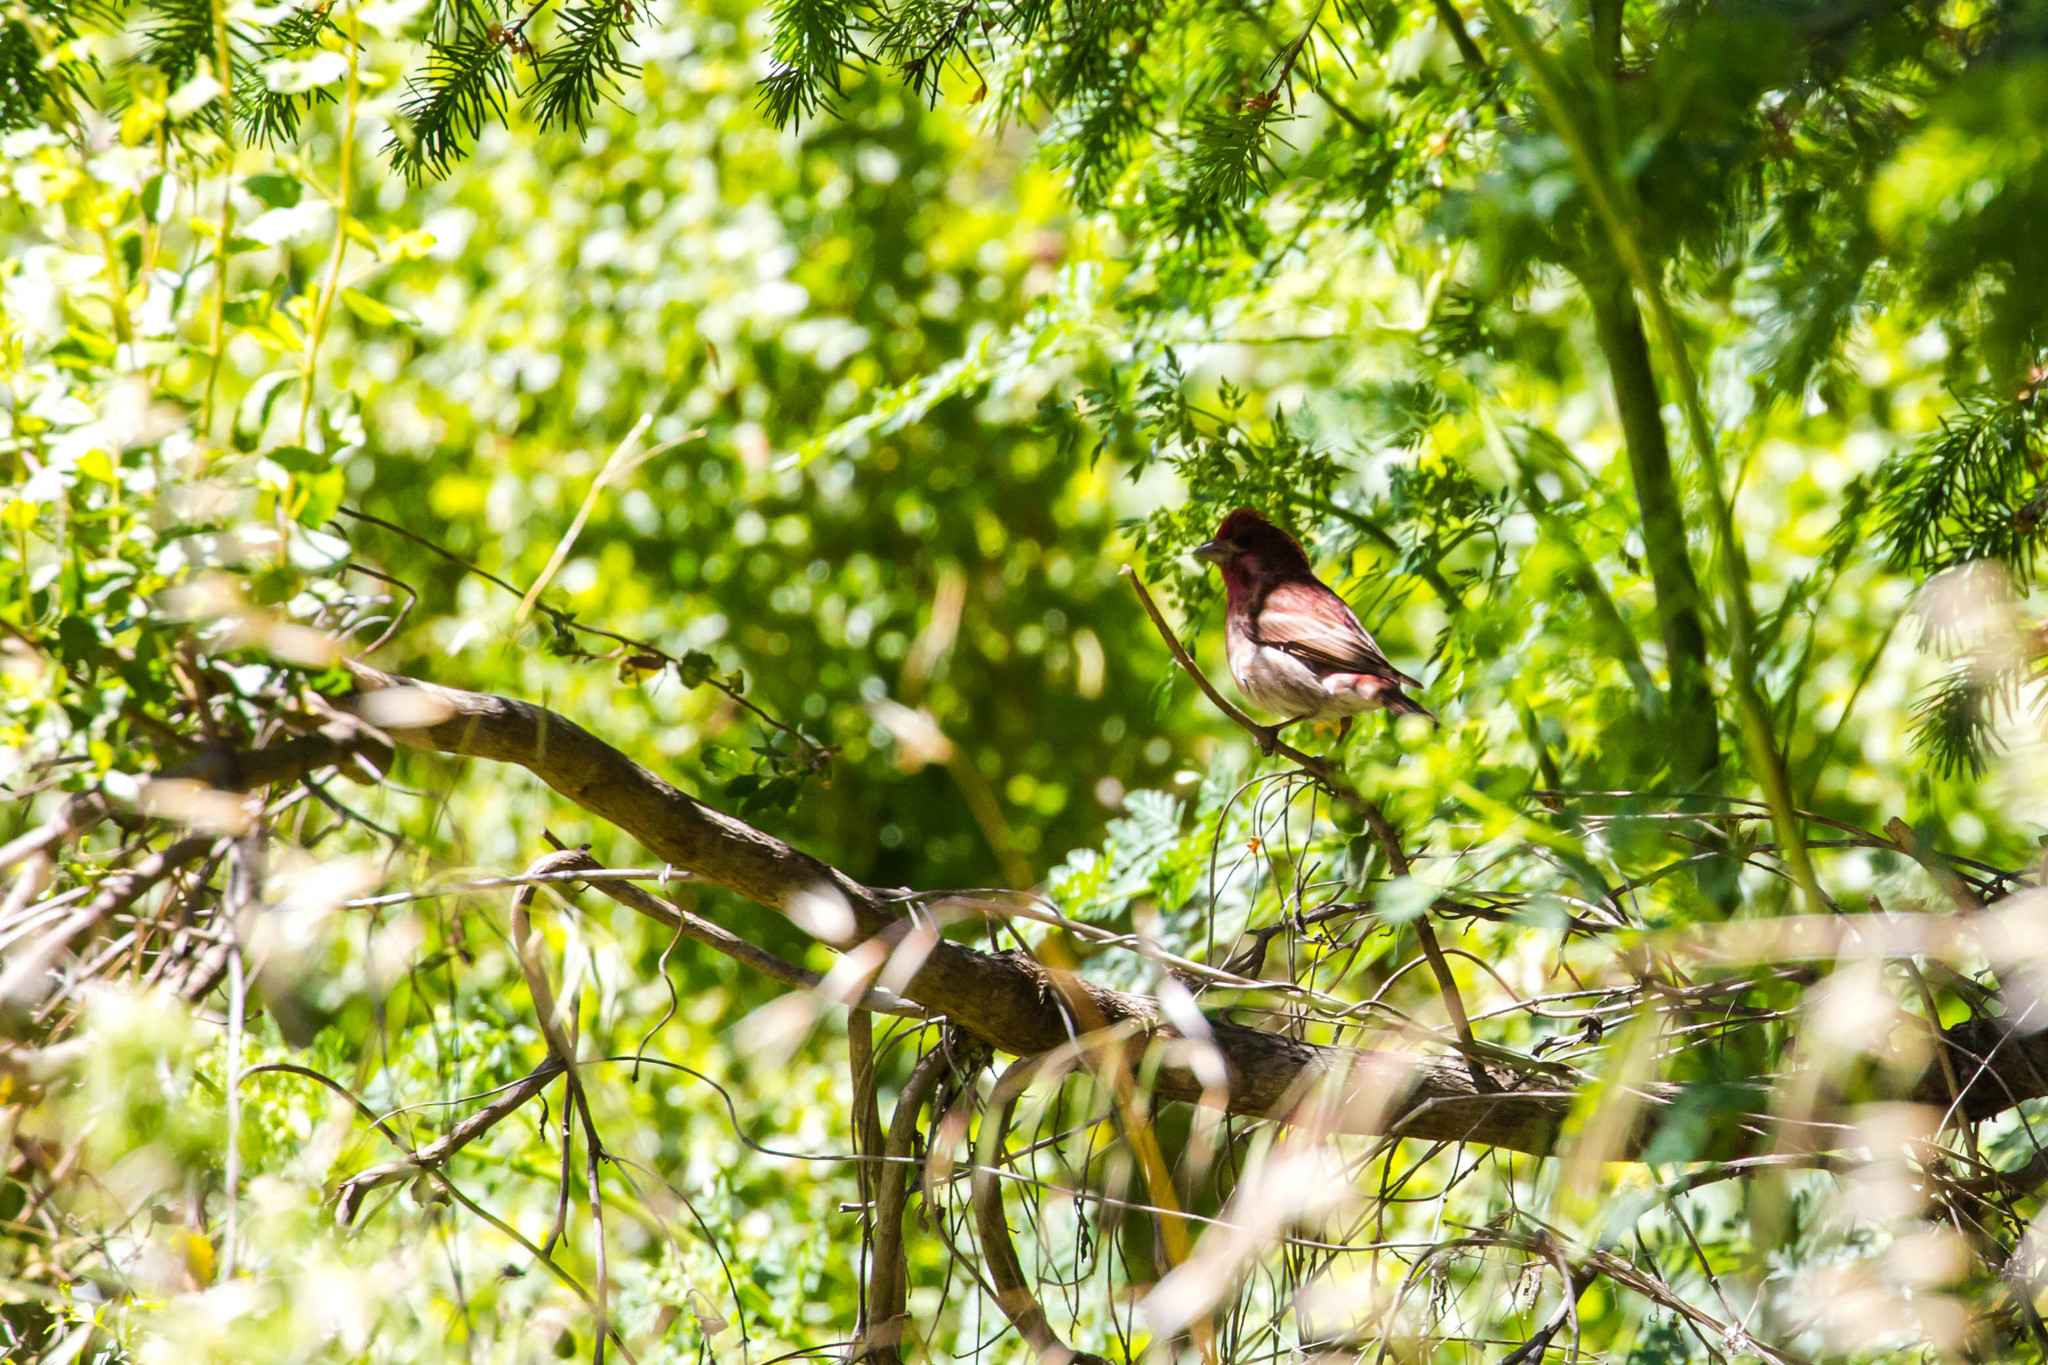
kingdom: Animalia
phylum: Chordata
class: Aves
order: Passeriformes
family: Fringillidae
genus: Haemorhous
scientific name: Haemorhous purpureus
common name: Purple finch
